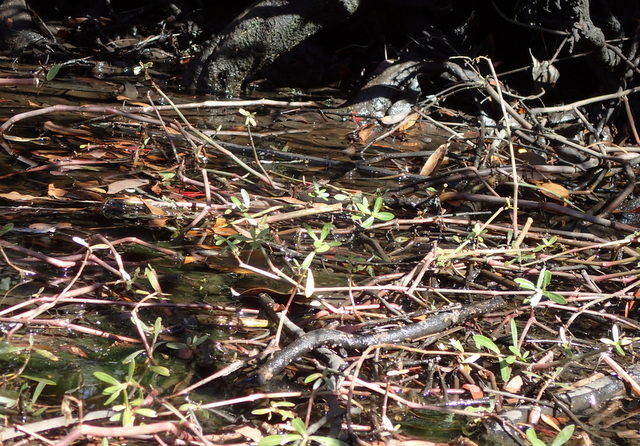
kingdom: Plantae
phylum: Tracheophyta
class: Magnoliopsida
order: Caryophyllales
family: Amaranthaceae
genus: Alternanthera
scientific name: Alternanthera philoxeroides
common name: Alligatorweed
